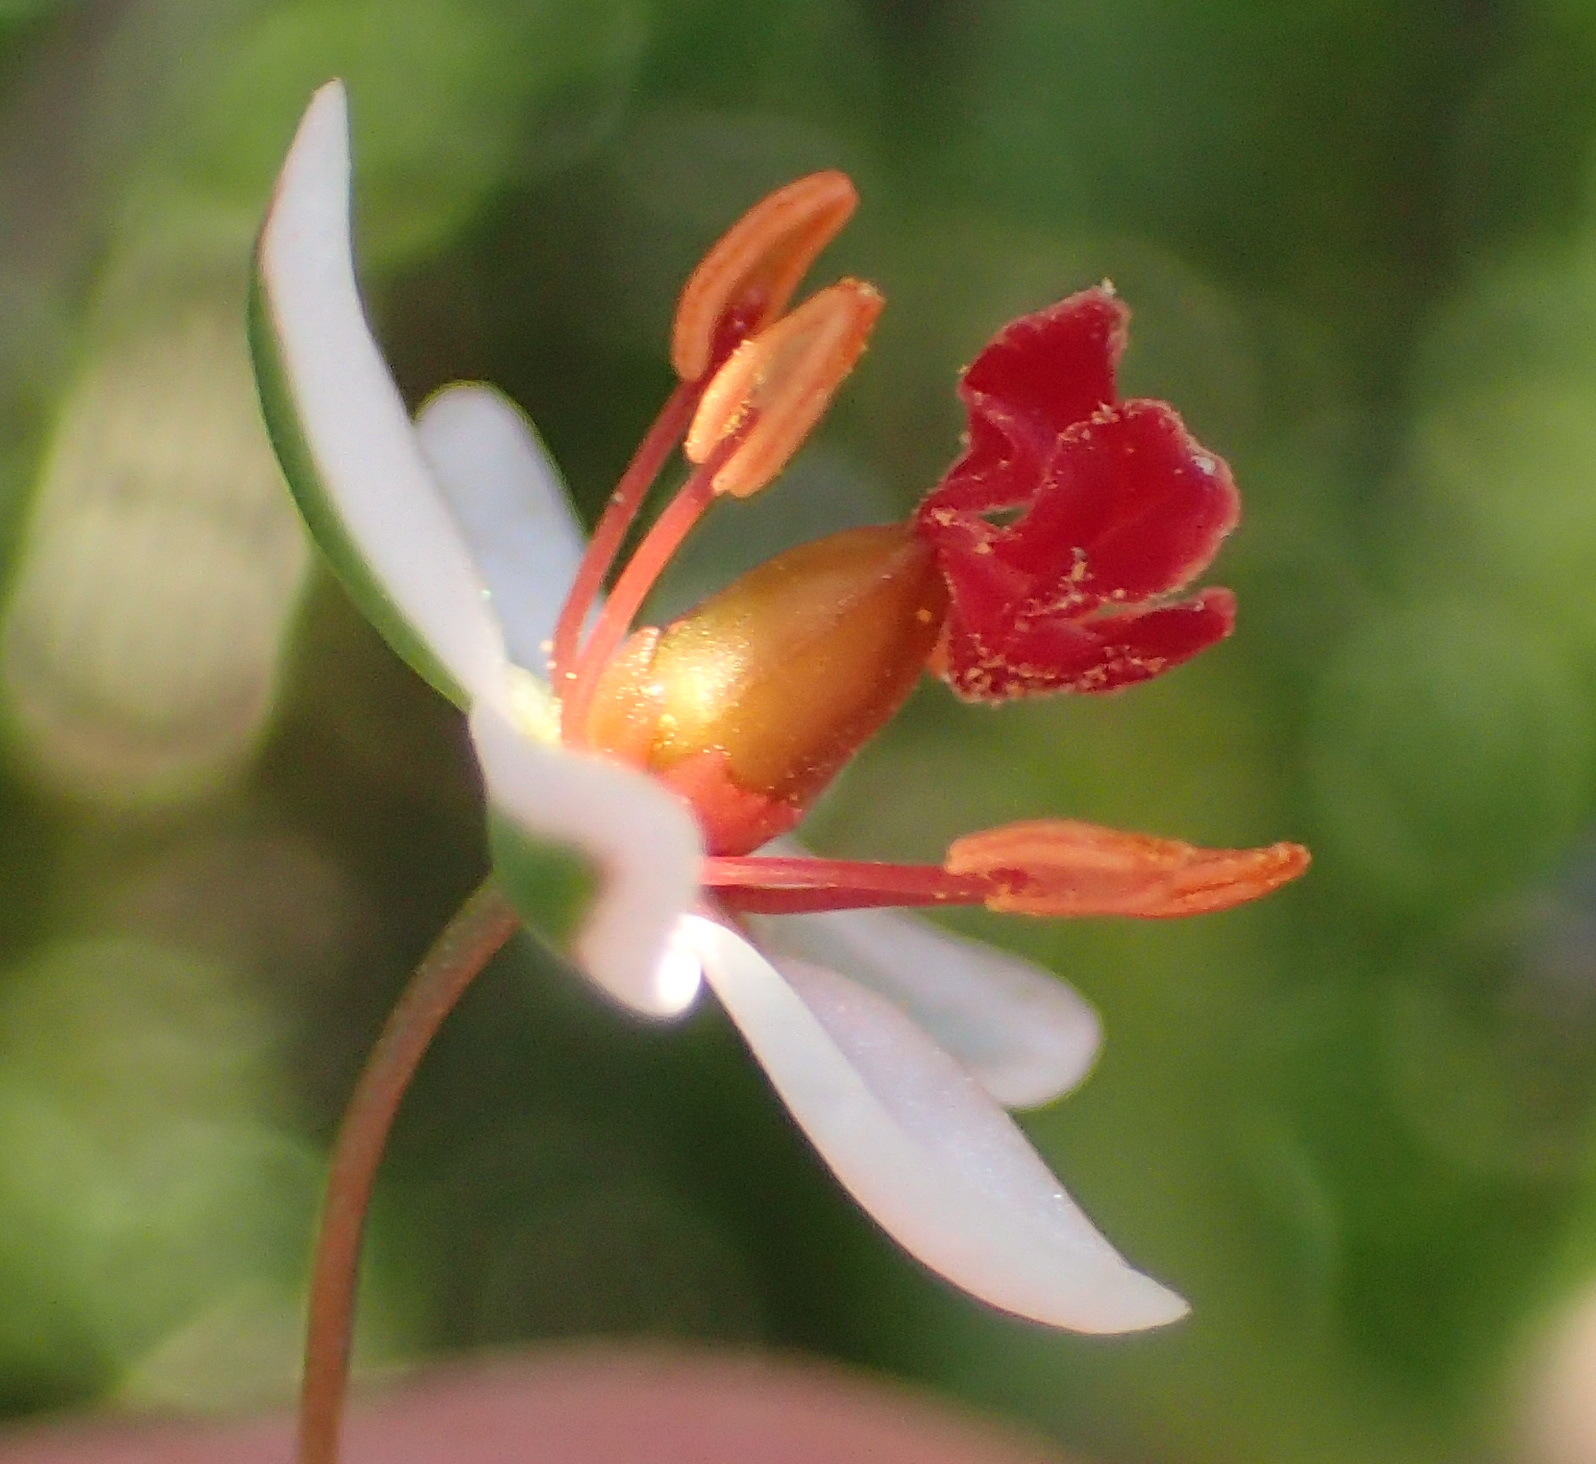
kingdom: Plantae
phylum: Tracheophyta
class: Magnoliopsida
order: Caryophyllales
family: Molluginaceae
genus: Pharnaceum
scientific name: Pharnaceum confertum
